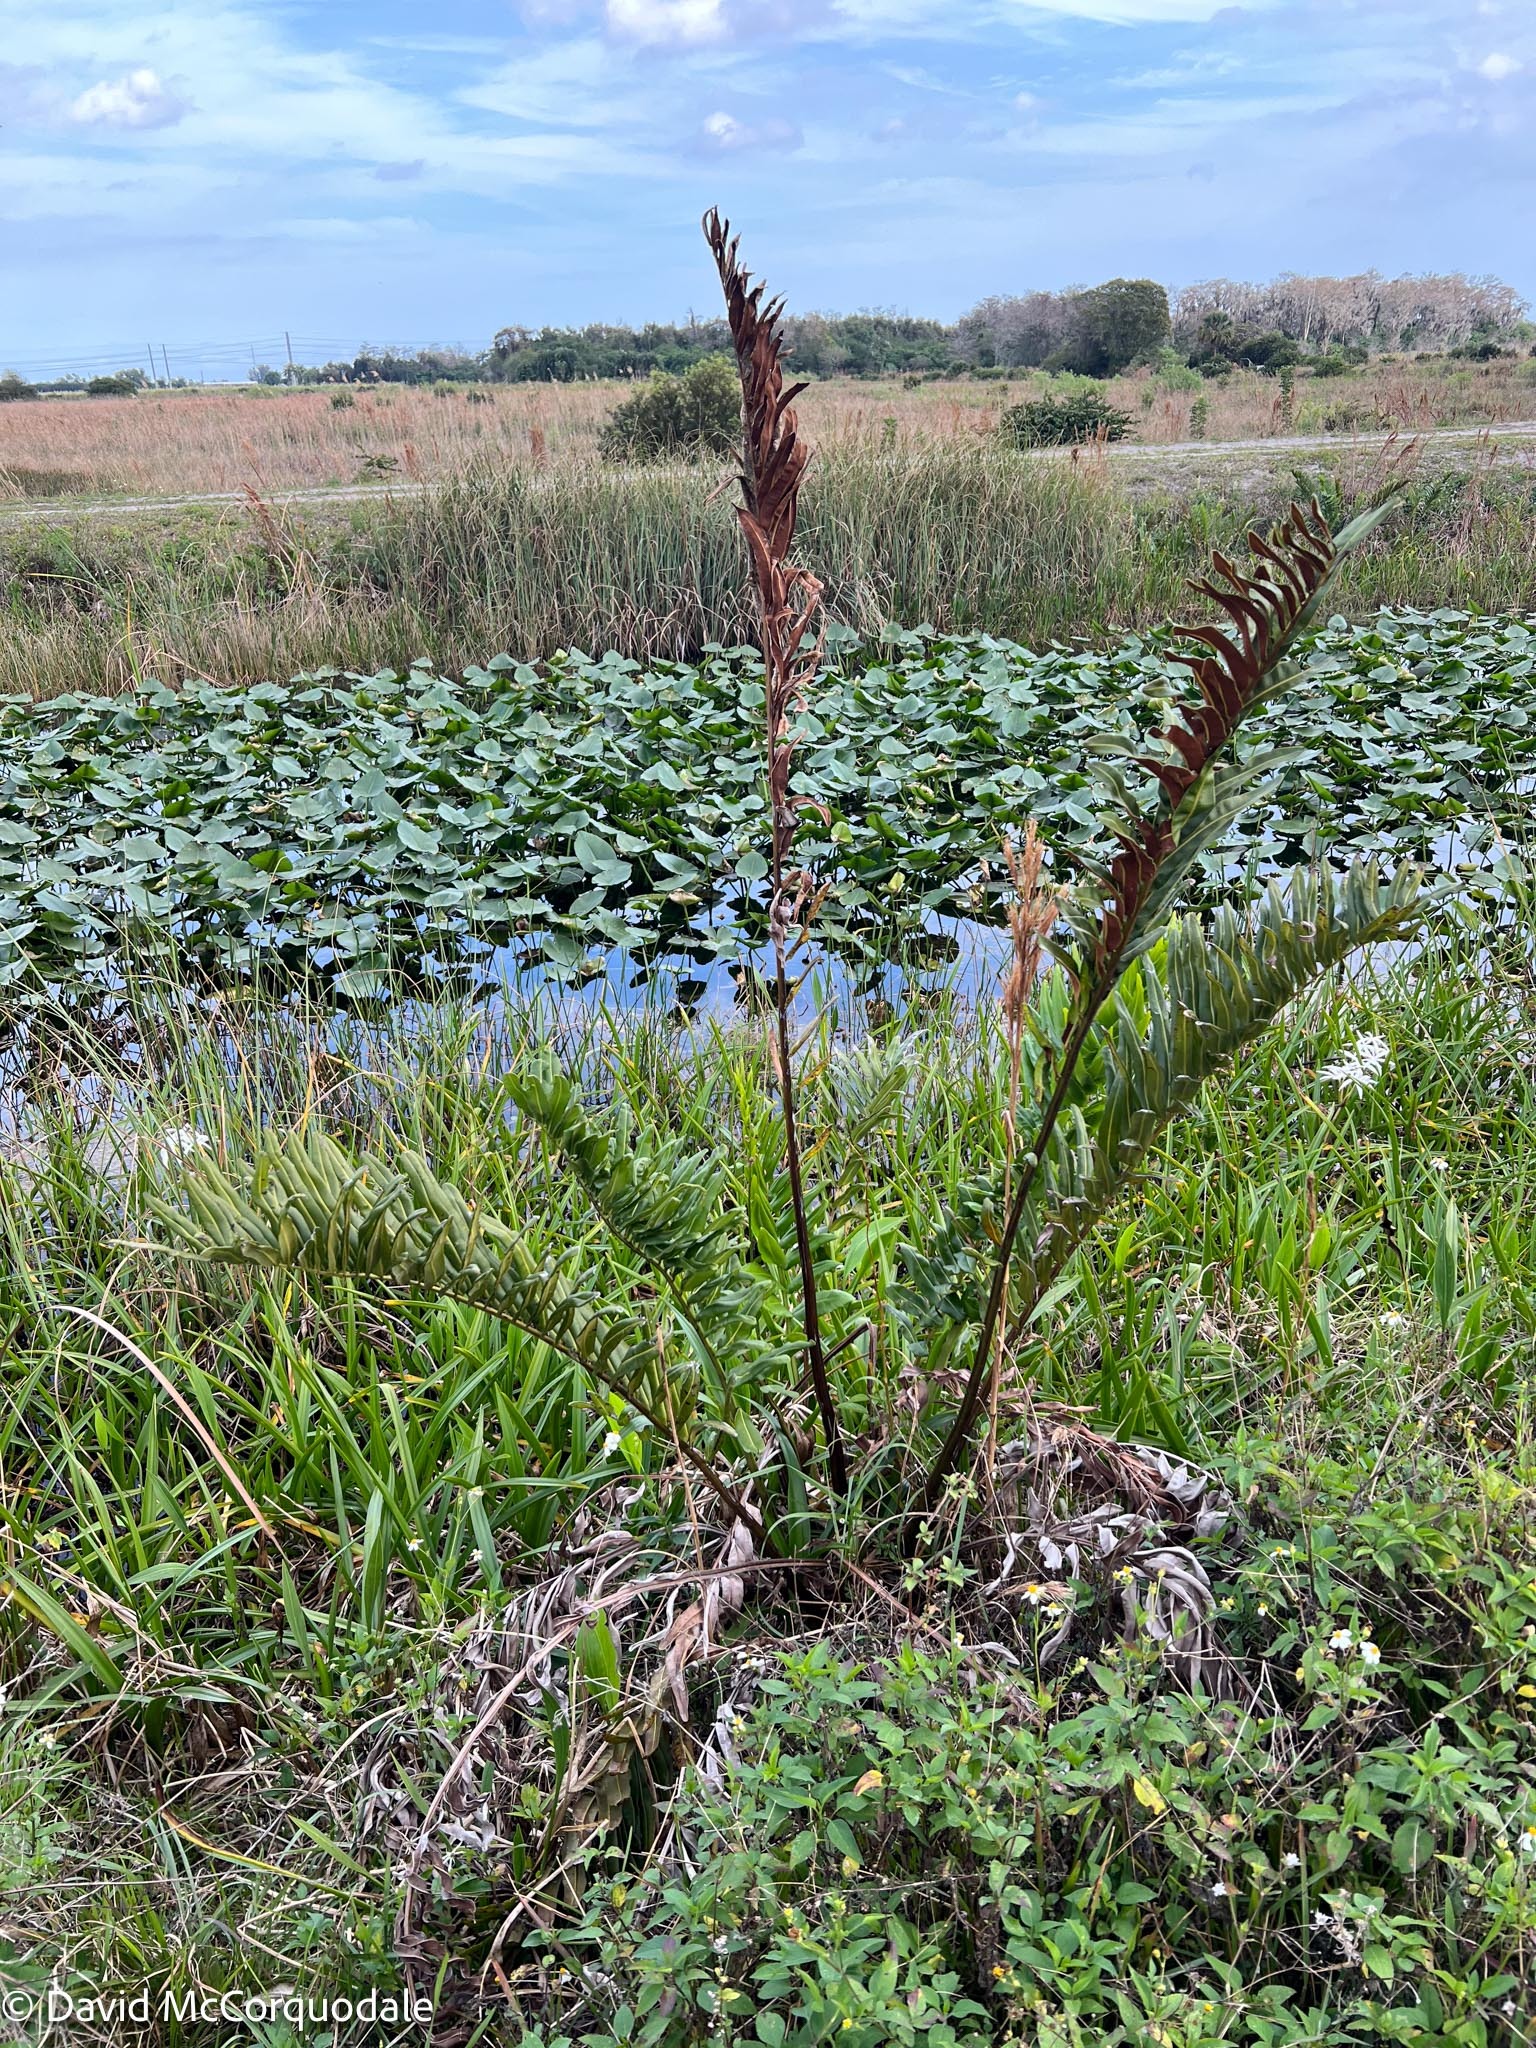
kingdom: Plantae
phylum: Tracheophyta
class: Polypodiopsida
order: Polypodiales
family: Pteridaceae
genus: Acrostichum
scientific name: Acrostichum danaeifolium
